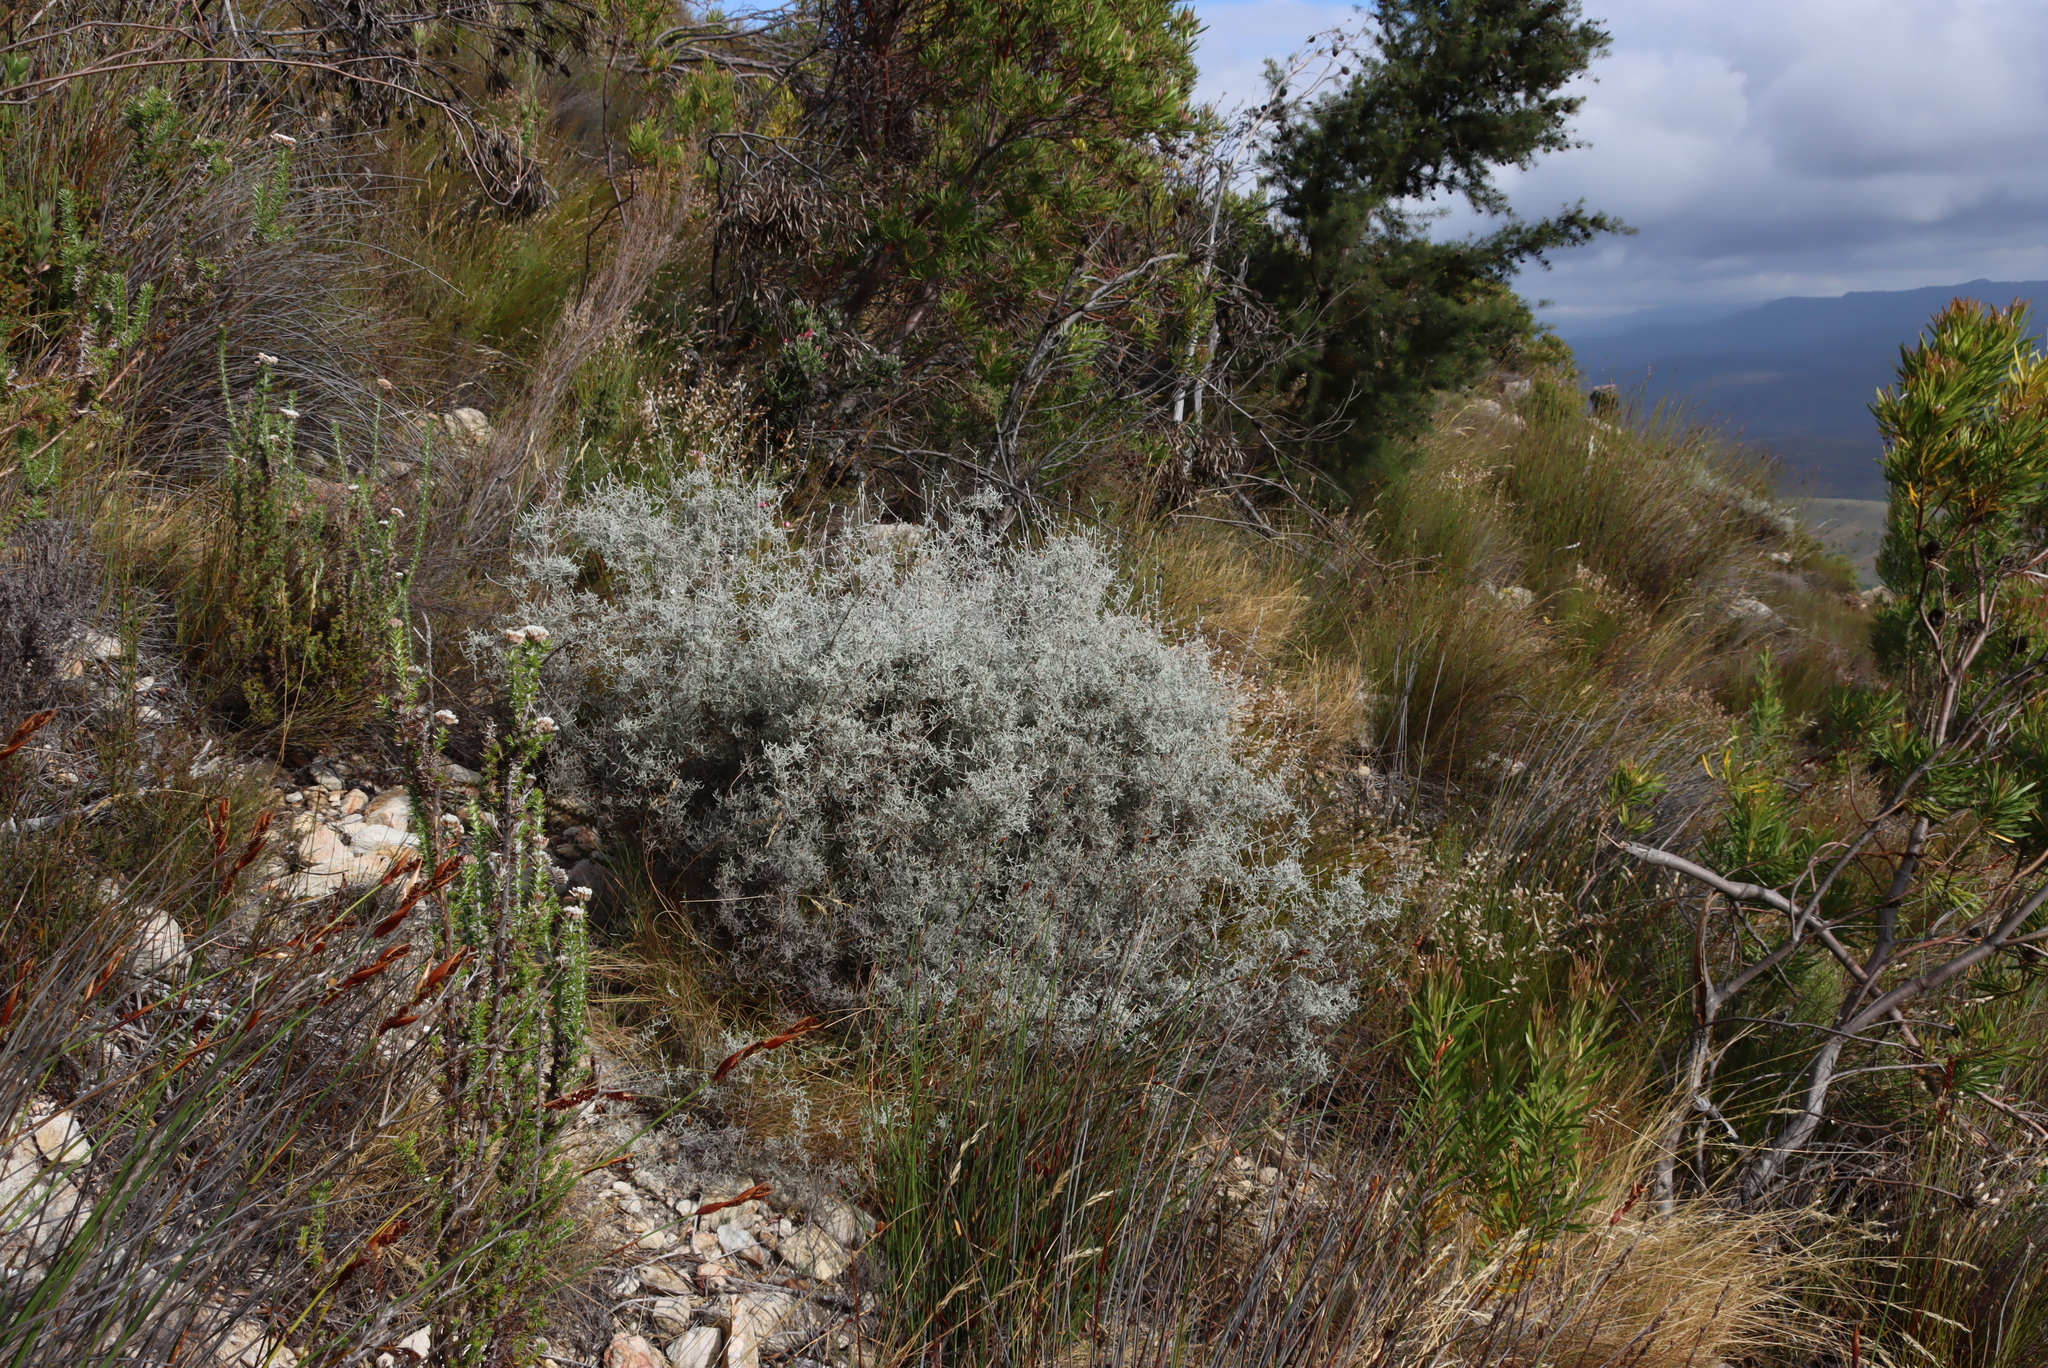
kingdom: Plantae
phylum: Tracheophyta
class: Magnoliopsida
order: Asterales
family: Asteraceae
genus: Seriphium
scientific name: Seriphium plumosum
